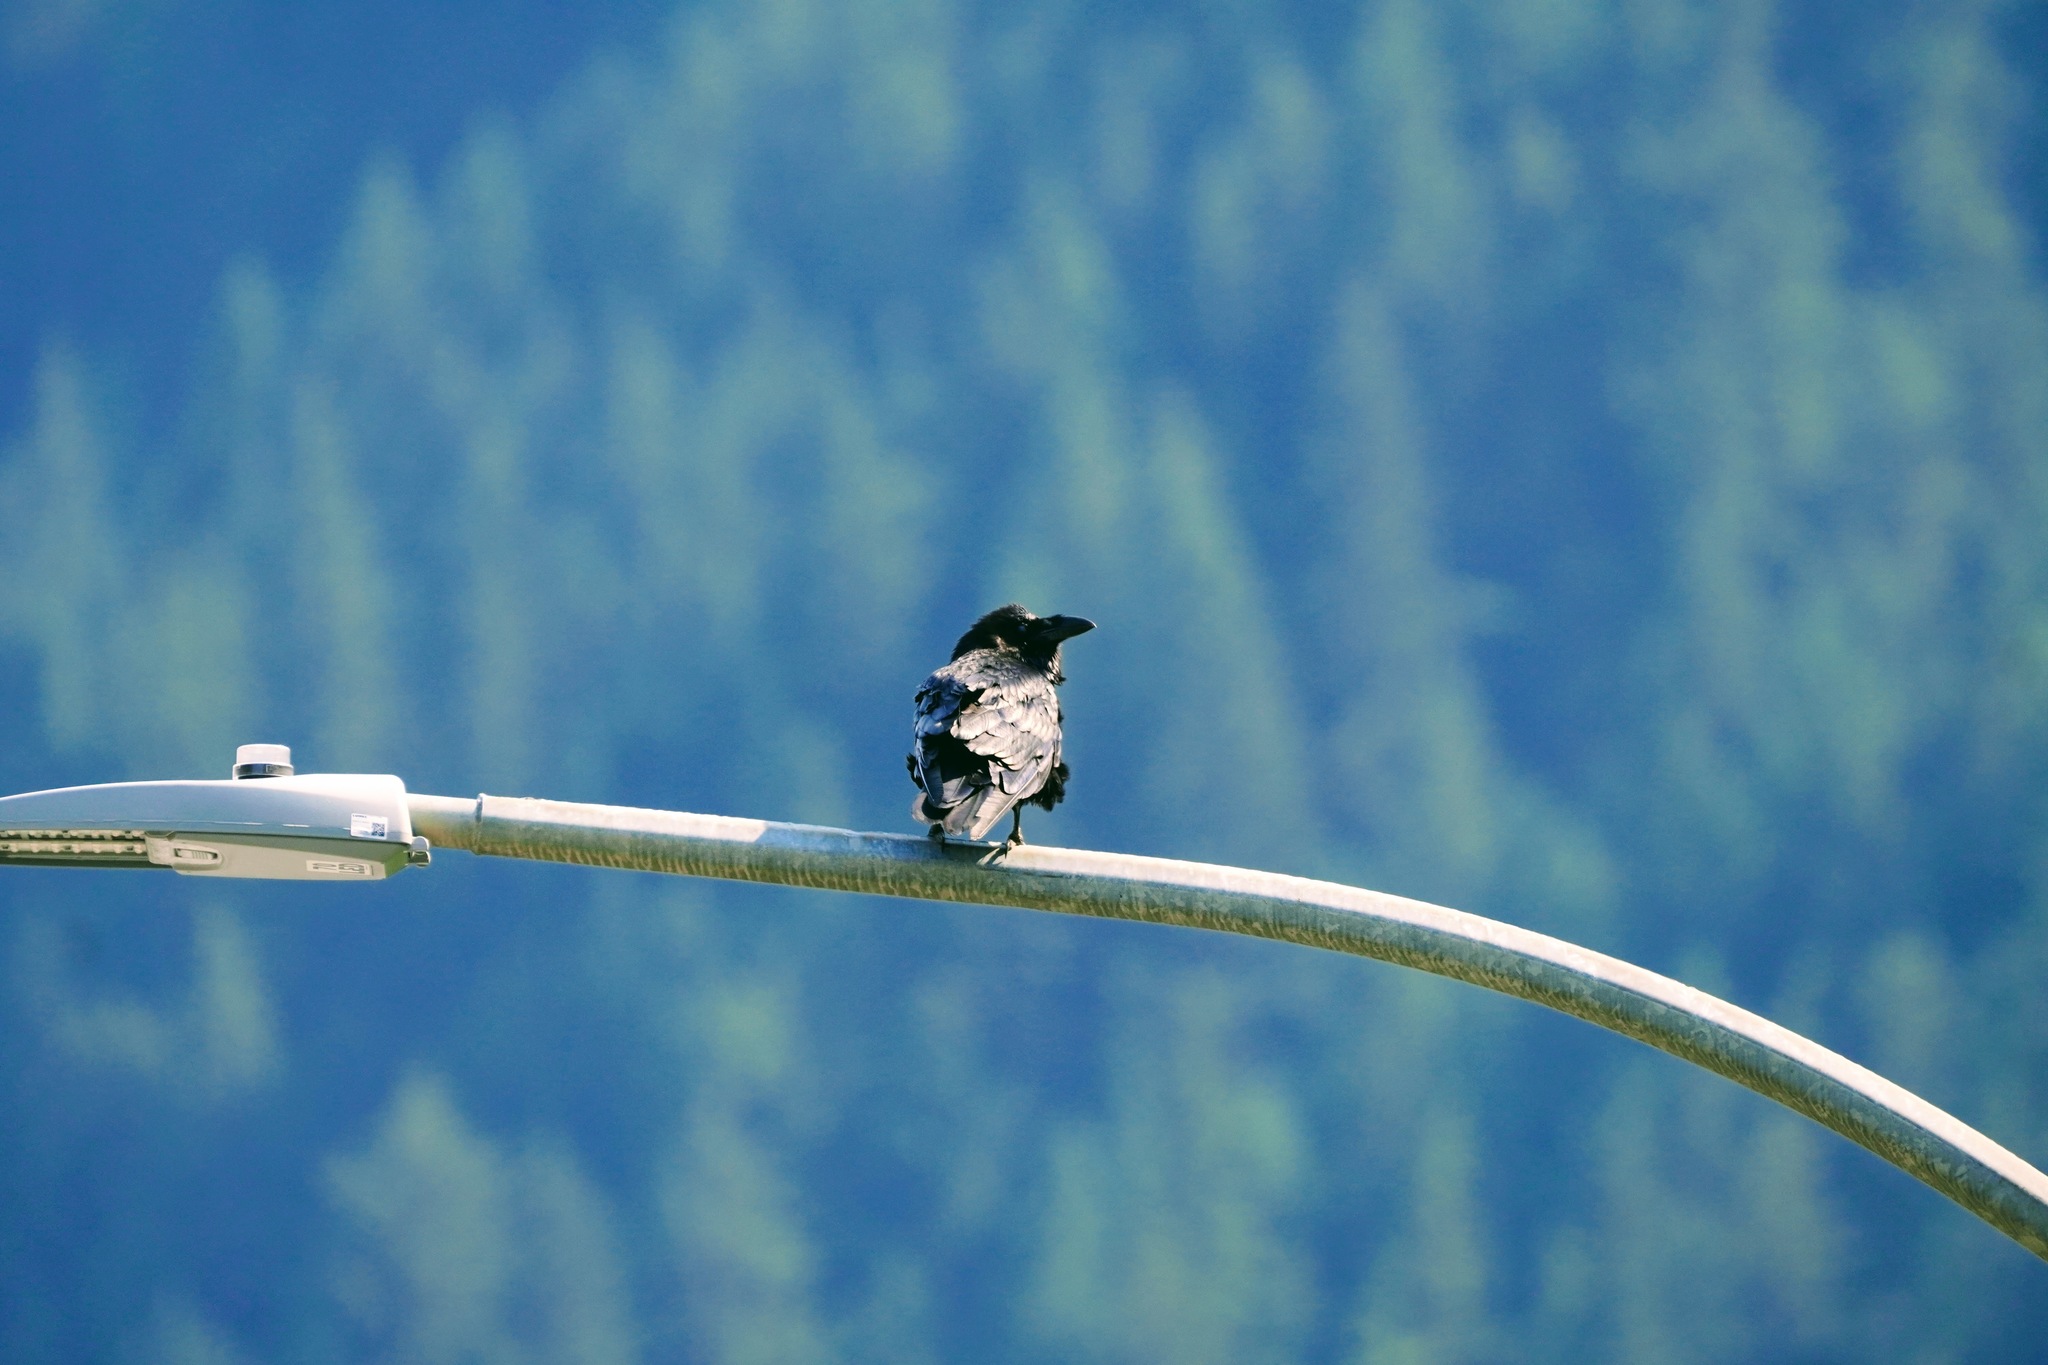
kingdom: Animalia
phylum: Chordata
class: Aves
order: Passeriformes
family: Corvidae
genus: Corvus
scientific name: Corvus corax
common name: Common raven
